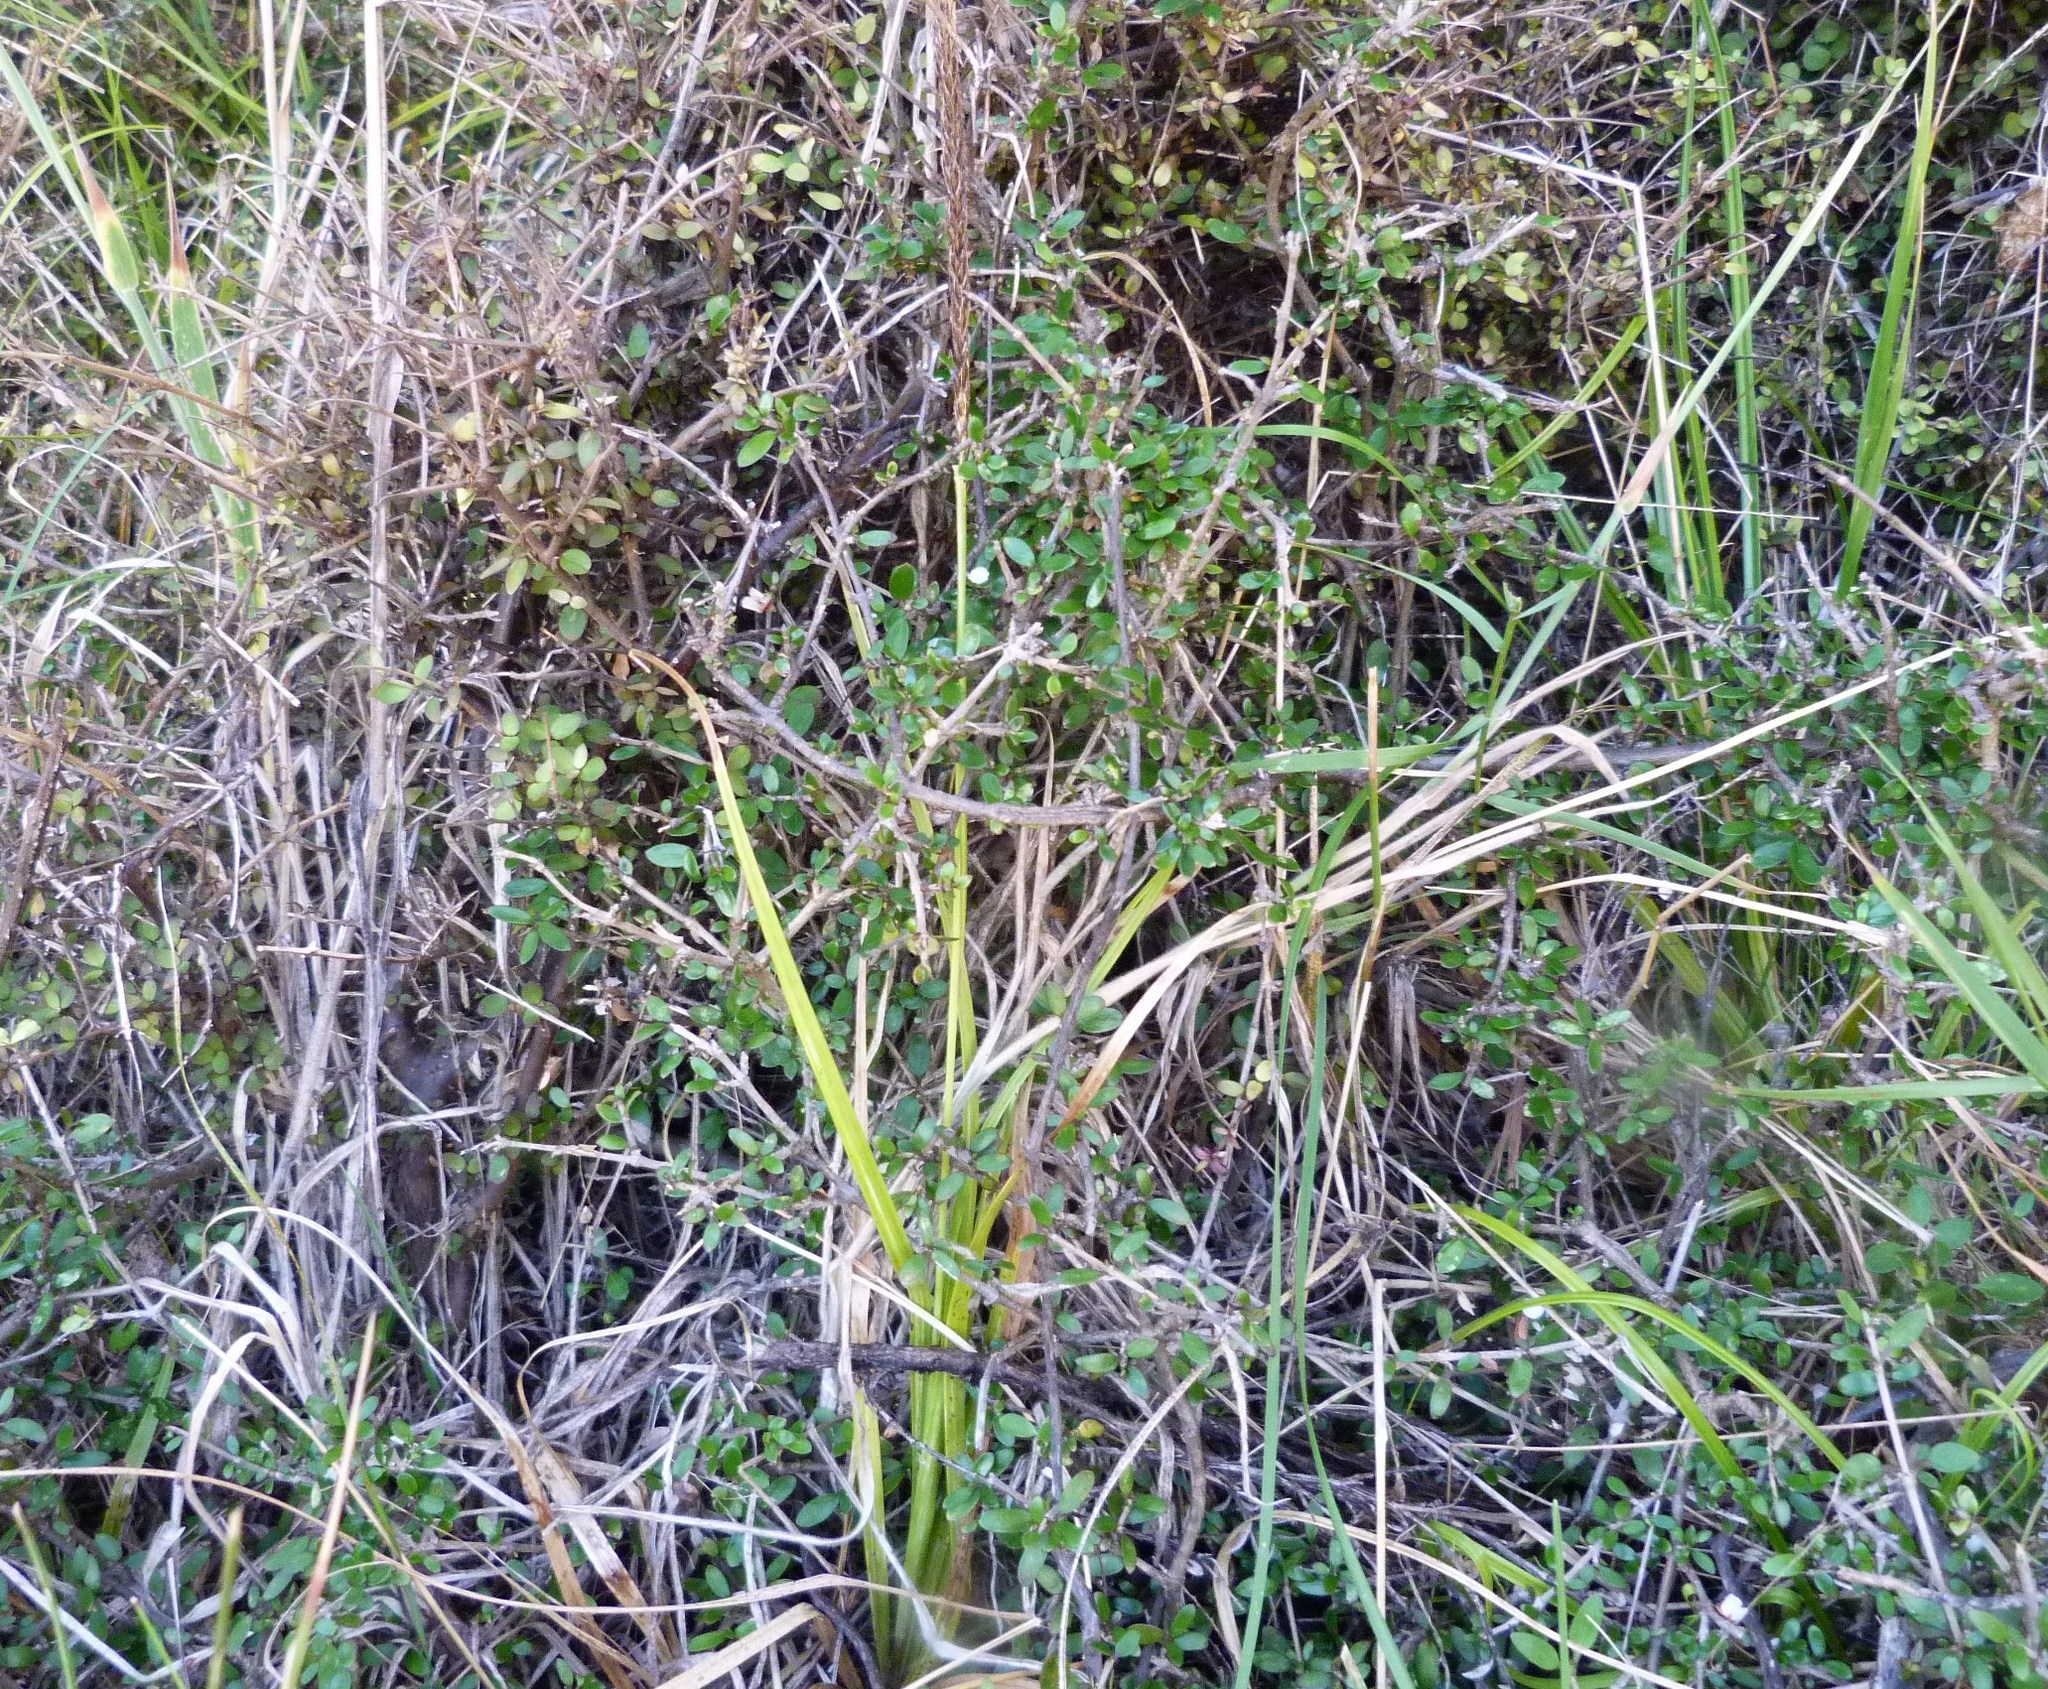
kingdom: Plantae
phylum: Tracheophyta
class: Liliopsida
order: Poales
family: Cyperaceae
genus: Carex
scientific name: Carex uncinata
